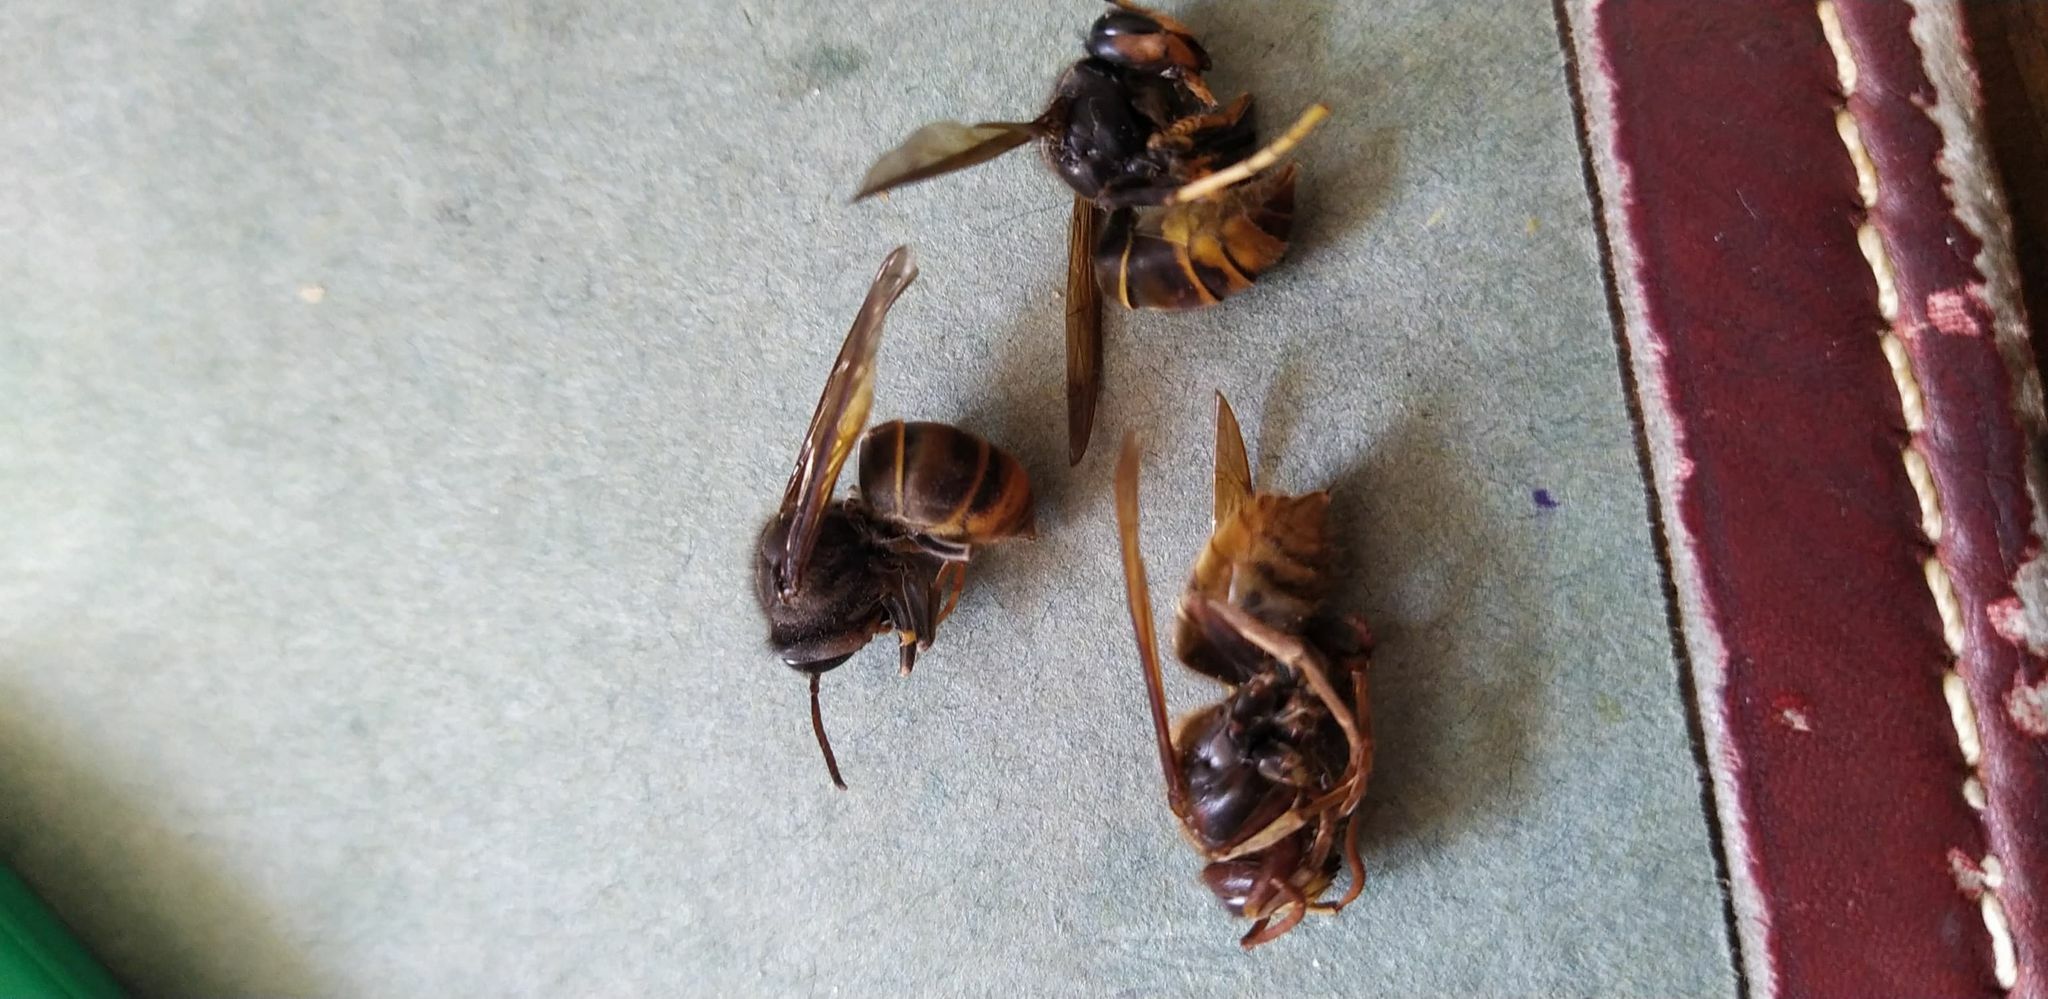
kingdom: Animalia
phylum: Arthropoda
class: Insecta
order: Hymenoptera
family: Vespidae
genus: Vespa
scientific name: Vespa velutina
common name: Asian hornet
